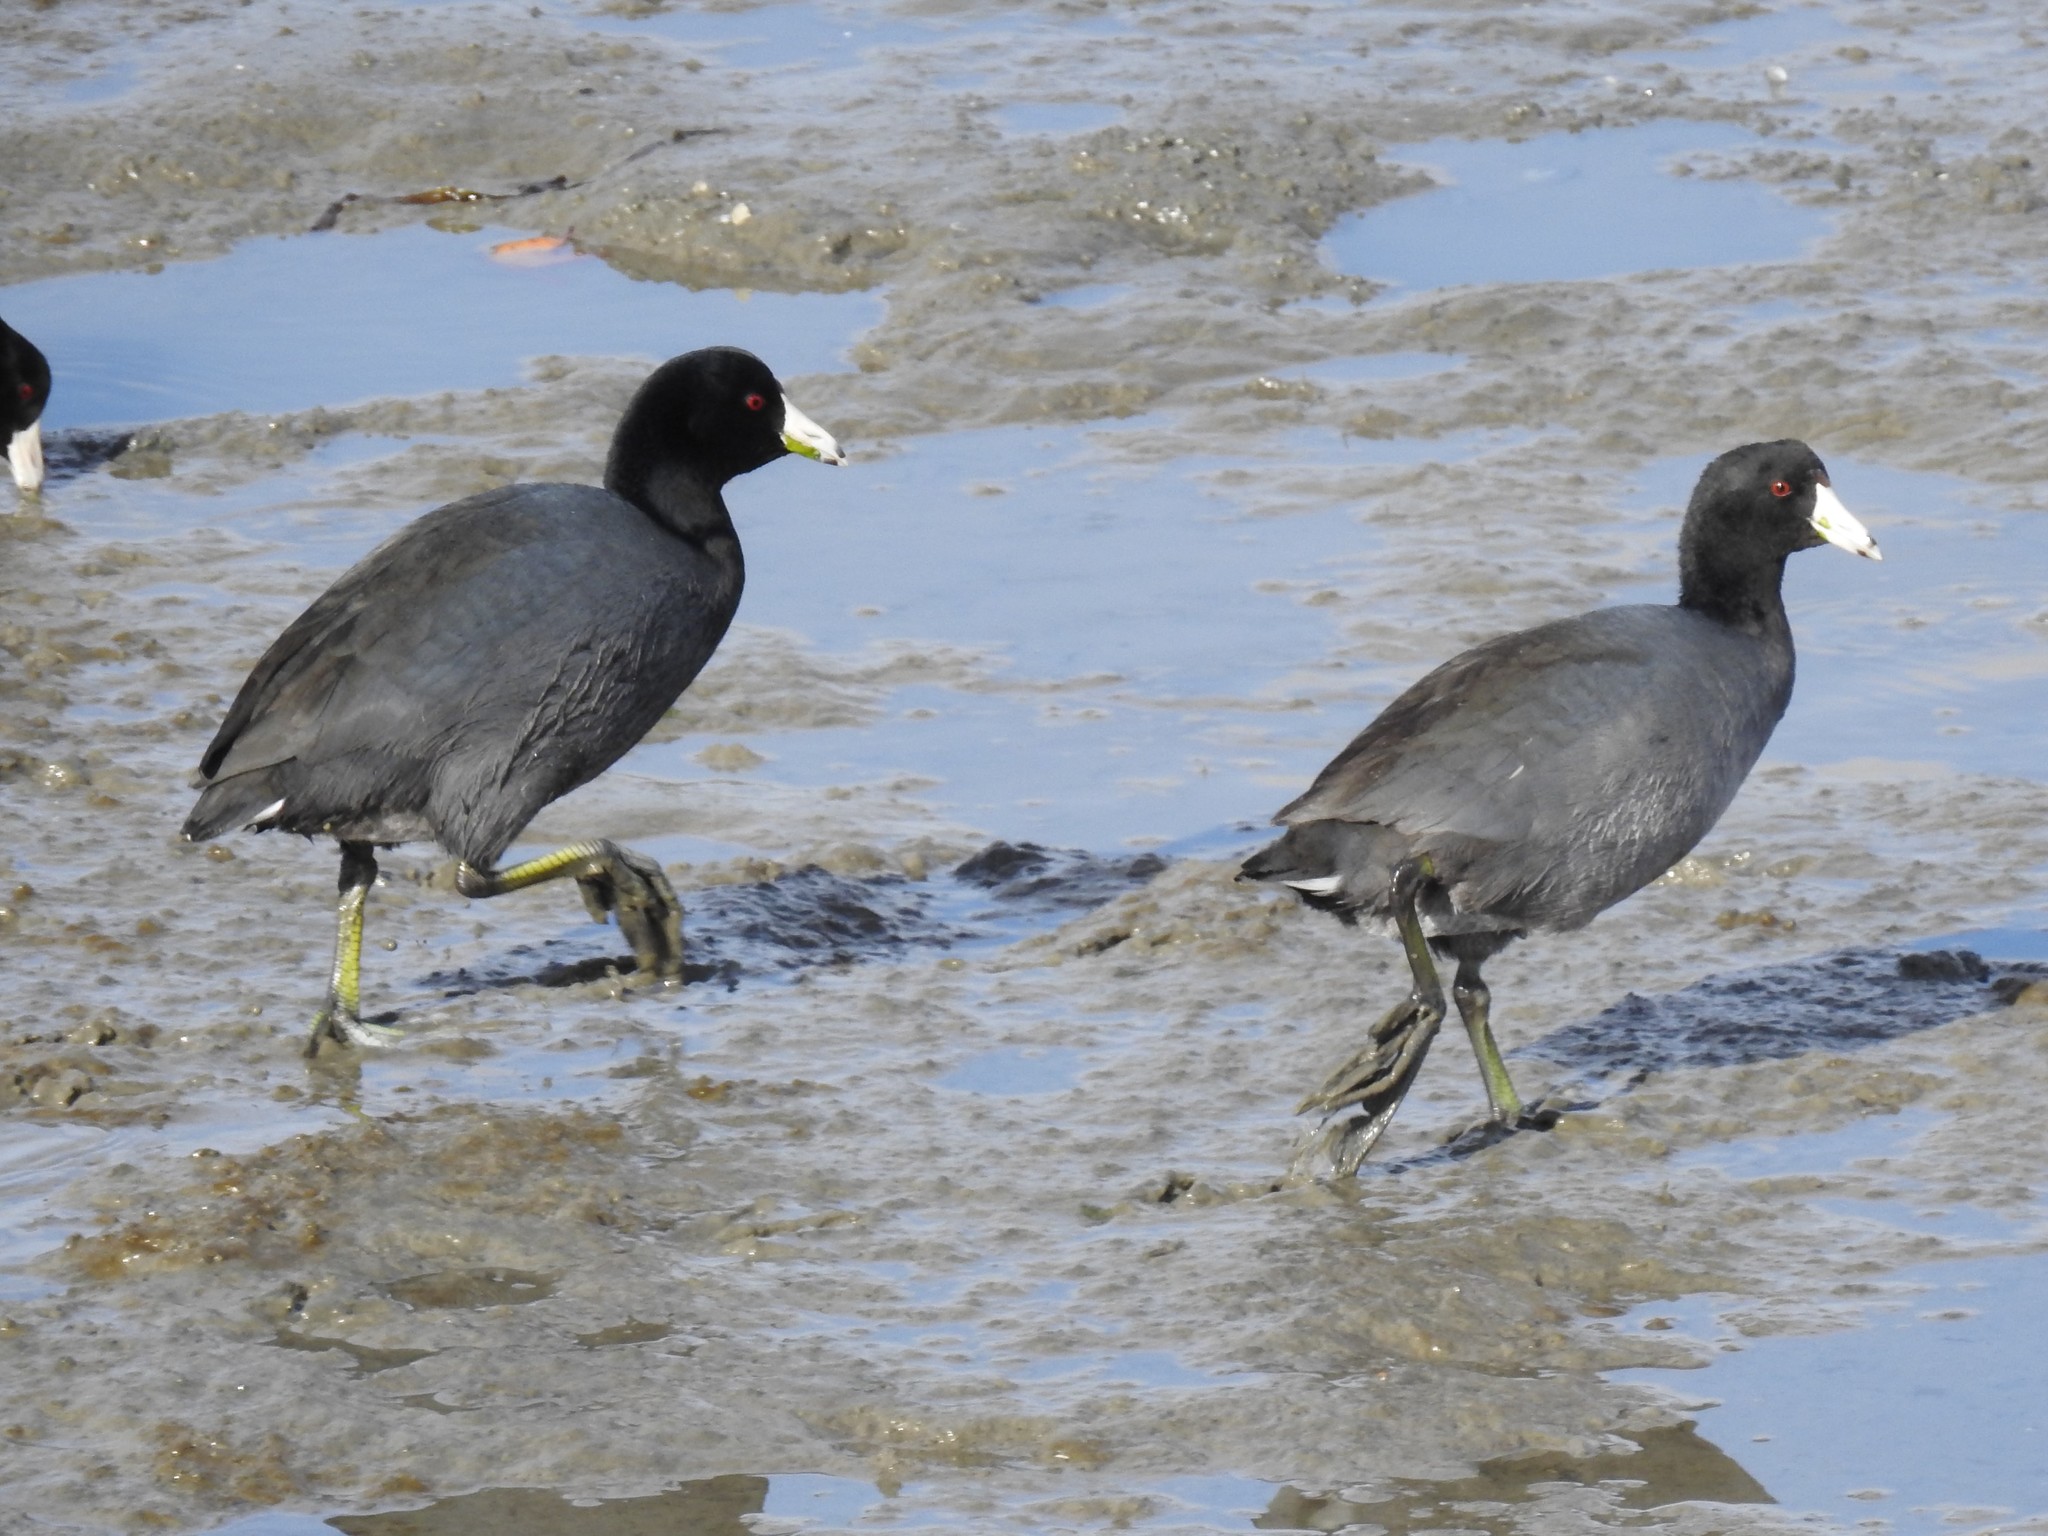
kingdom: Animalia
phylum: Chordata
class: Aves
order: Gruiformes
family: Rallidae
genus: Fulica
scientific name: Fulica americana
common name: American coot
